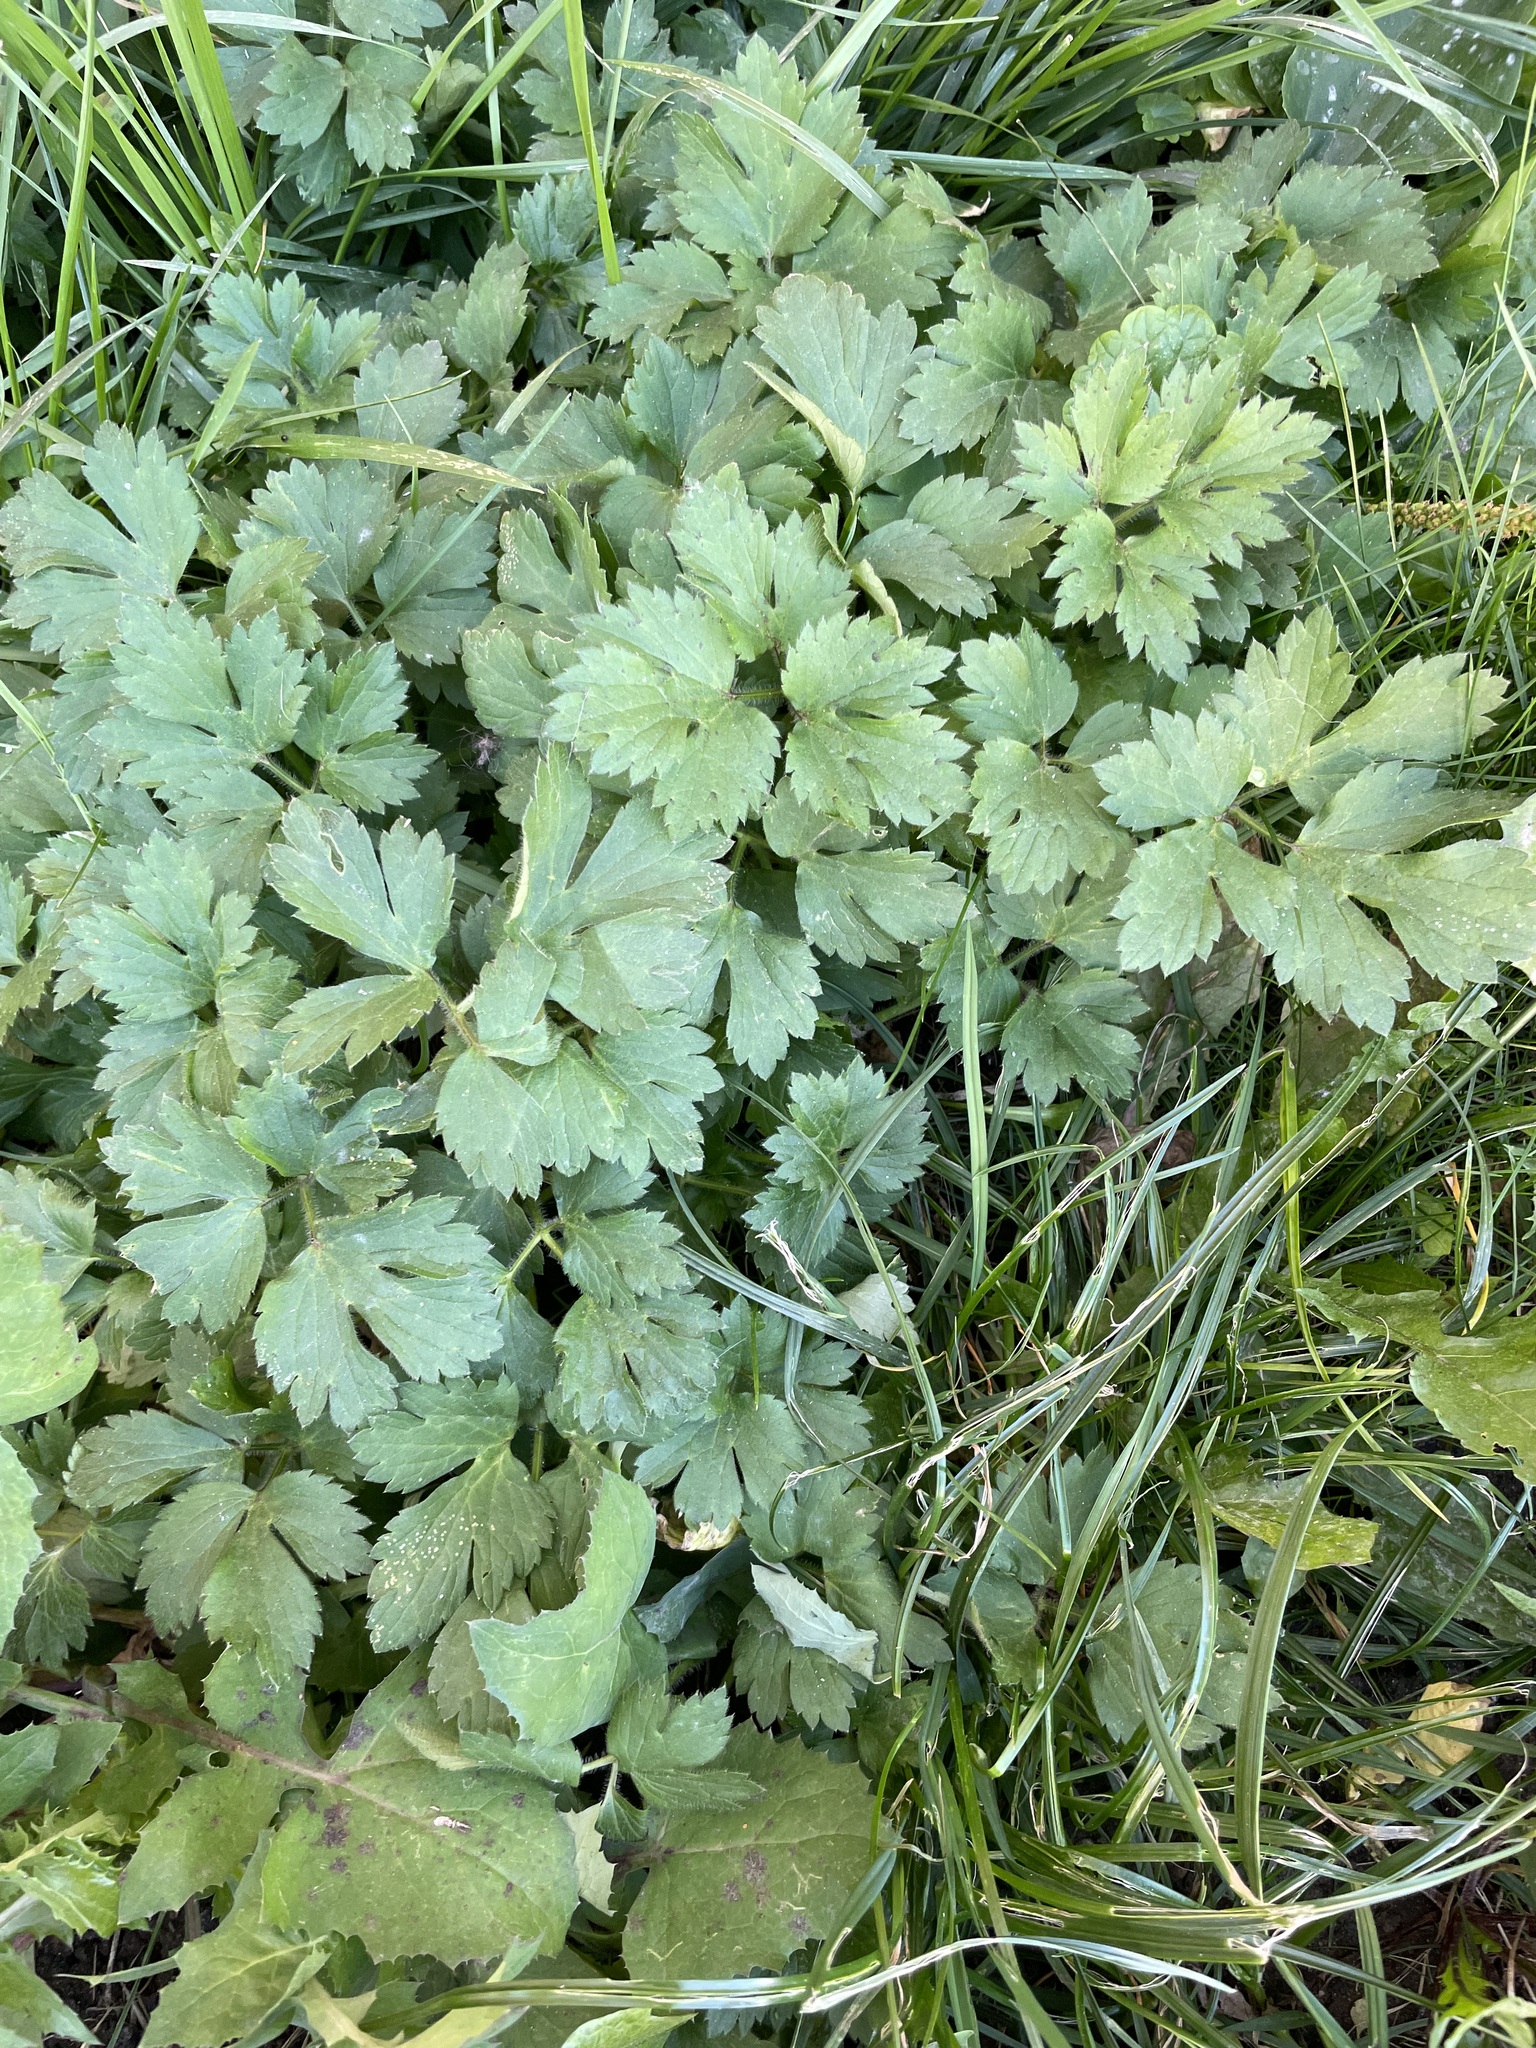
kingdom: Plantae
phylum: Tracheophyta
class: Magnoliopsida
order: Ranunculales
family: Ranunculaceae
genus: Ranunculus
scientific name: Ranunculus repens
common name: Creeping buttercup
